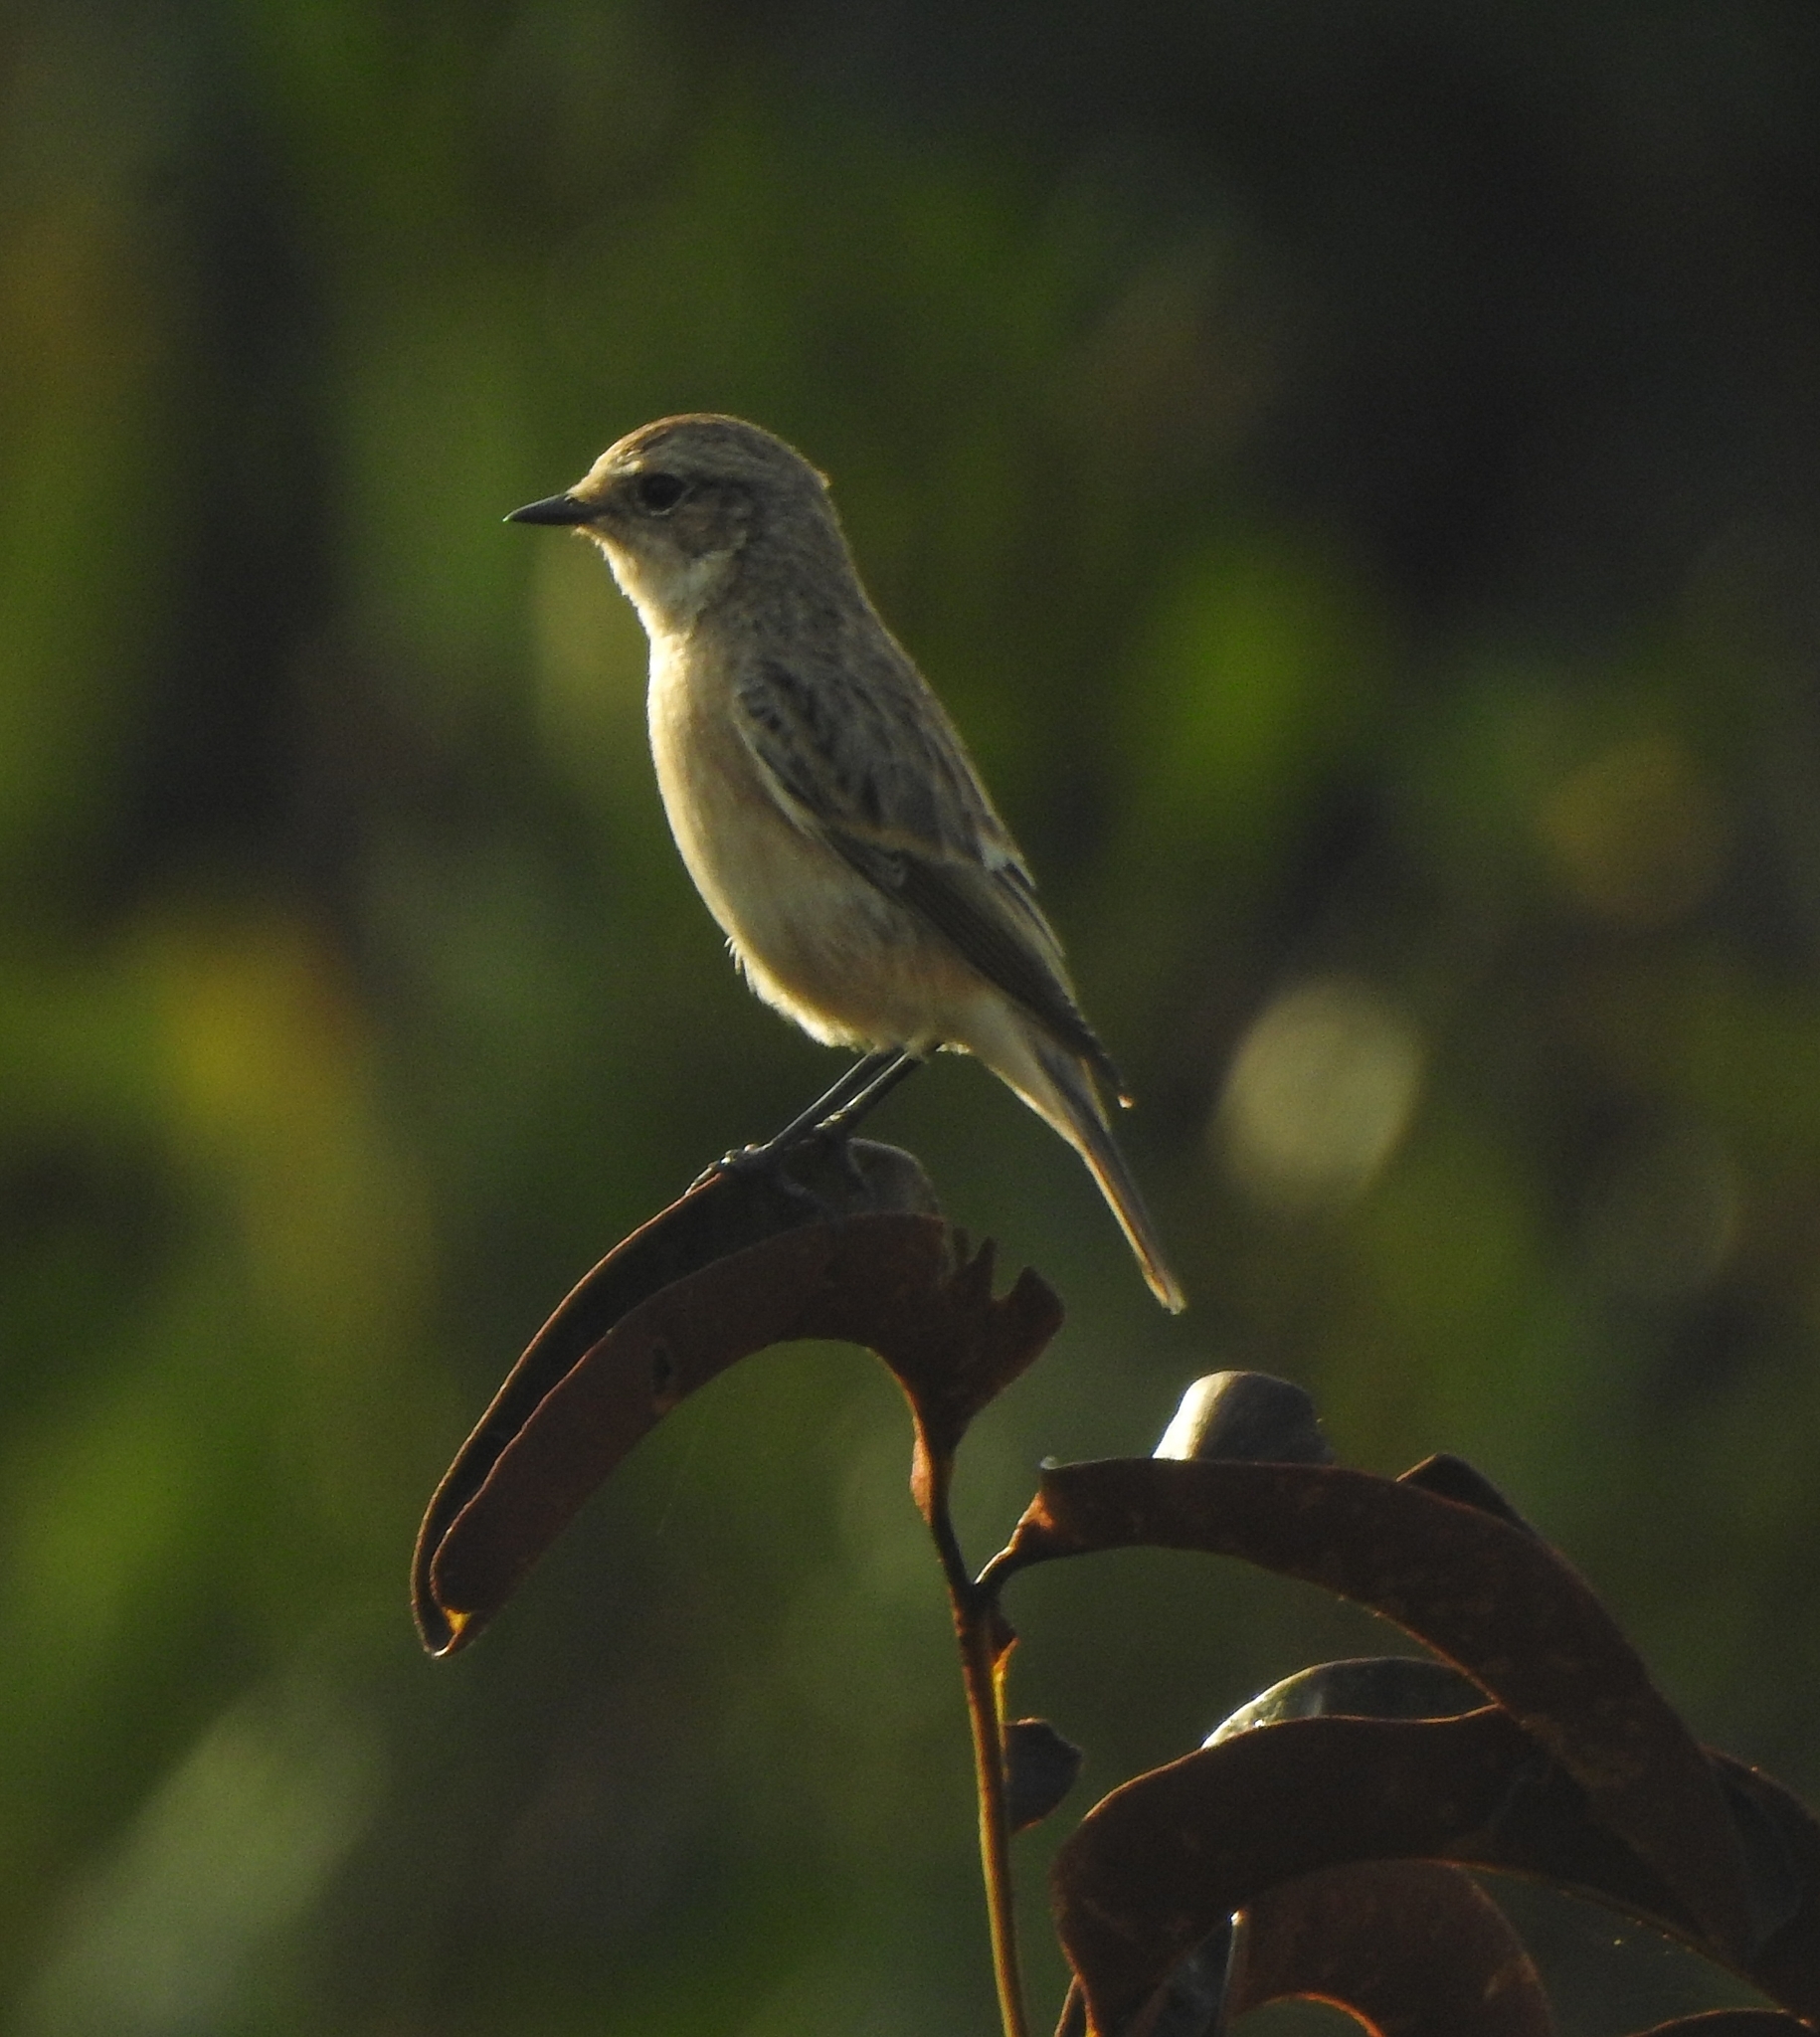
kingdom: Animalia
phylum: Chordata
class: Aves
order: Passeriformes
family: Muscicapidae
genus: Saxicola
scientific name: Saxicola maurus
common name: Siberian stonechat
